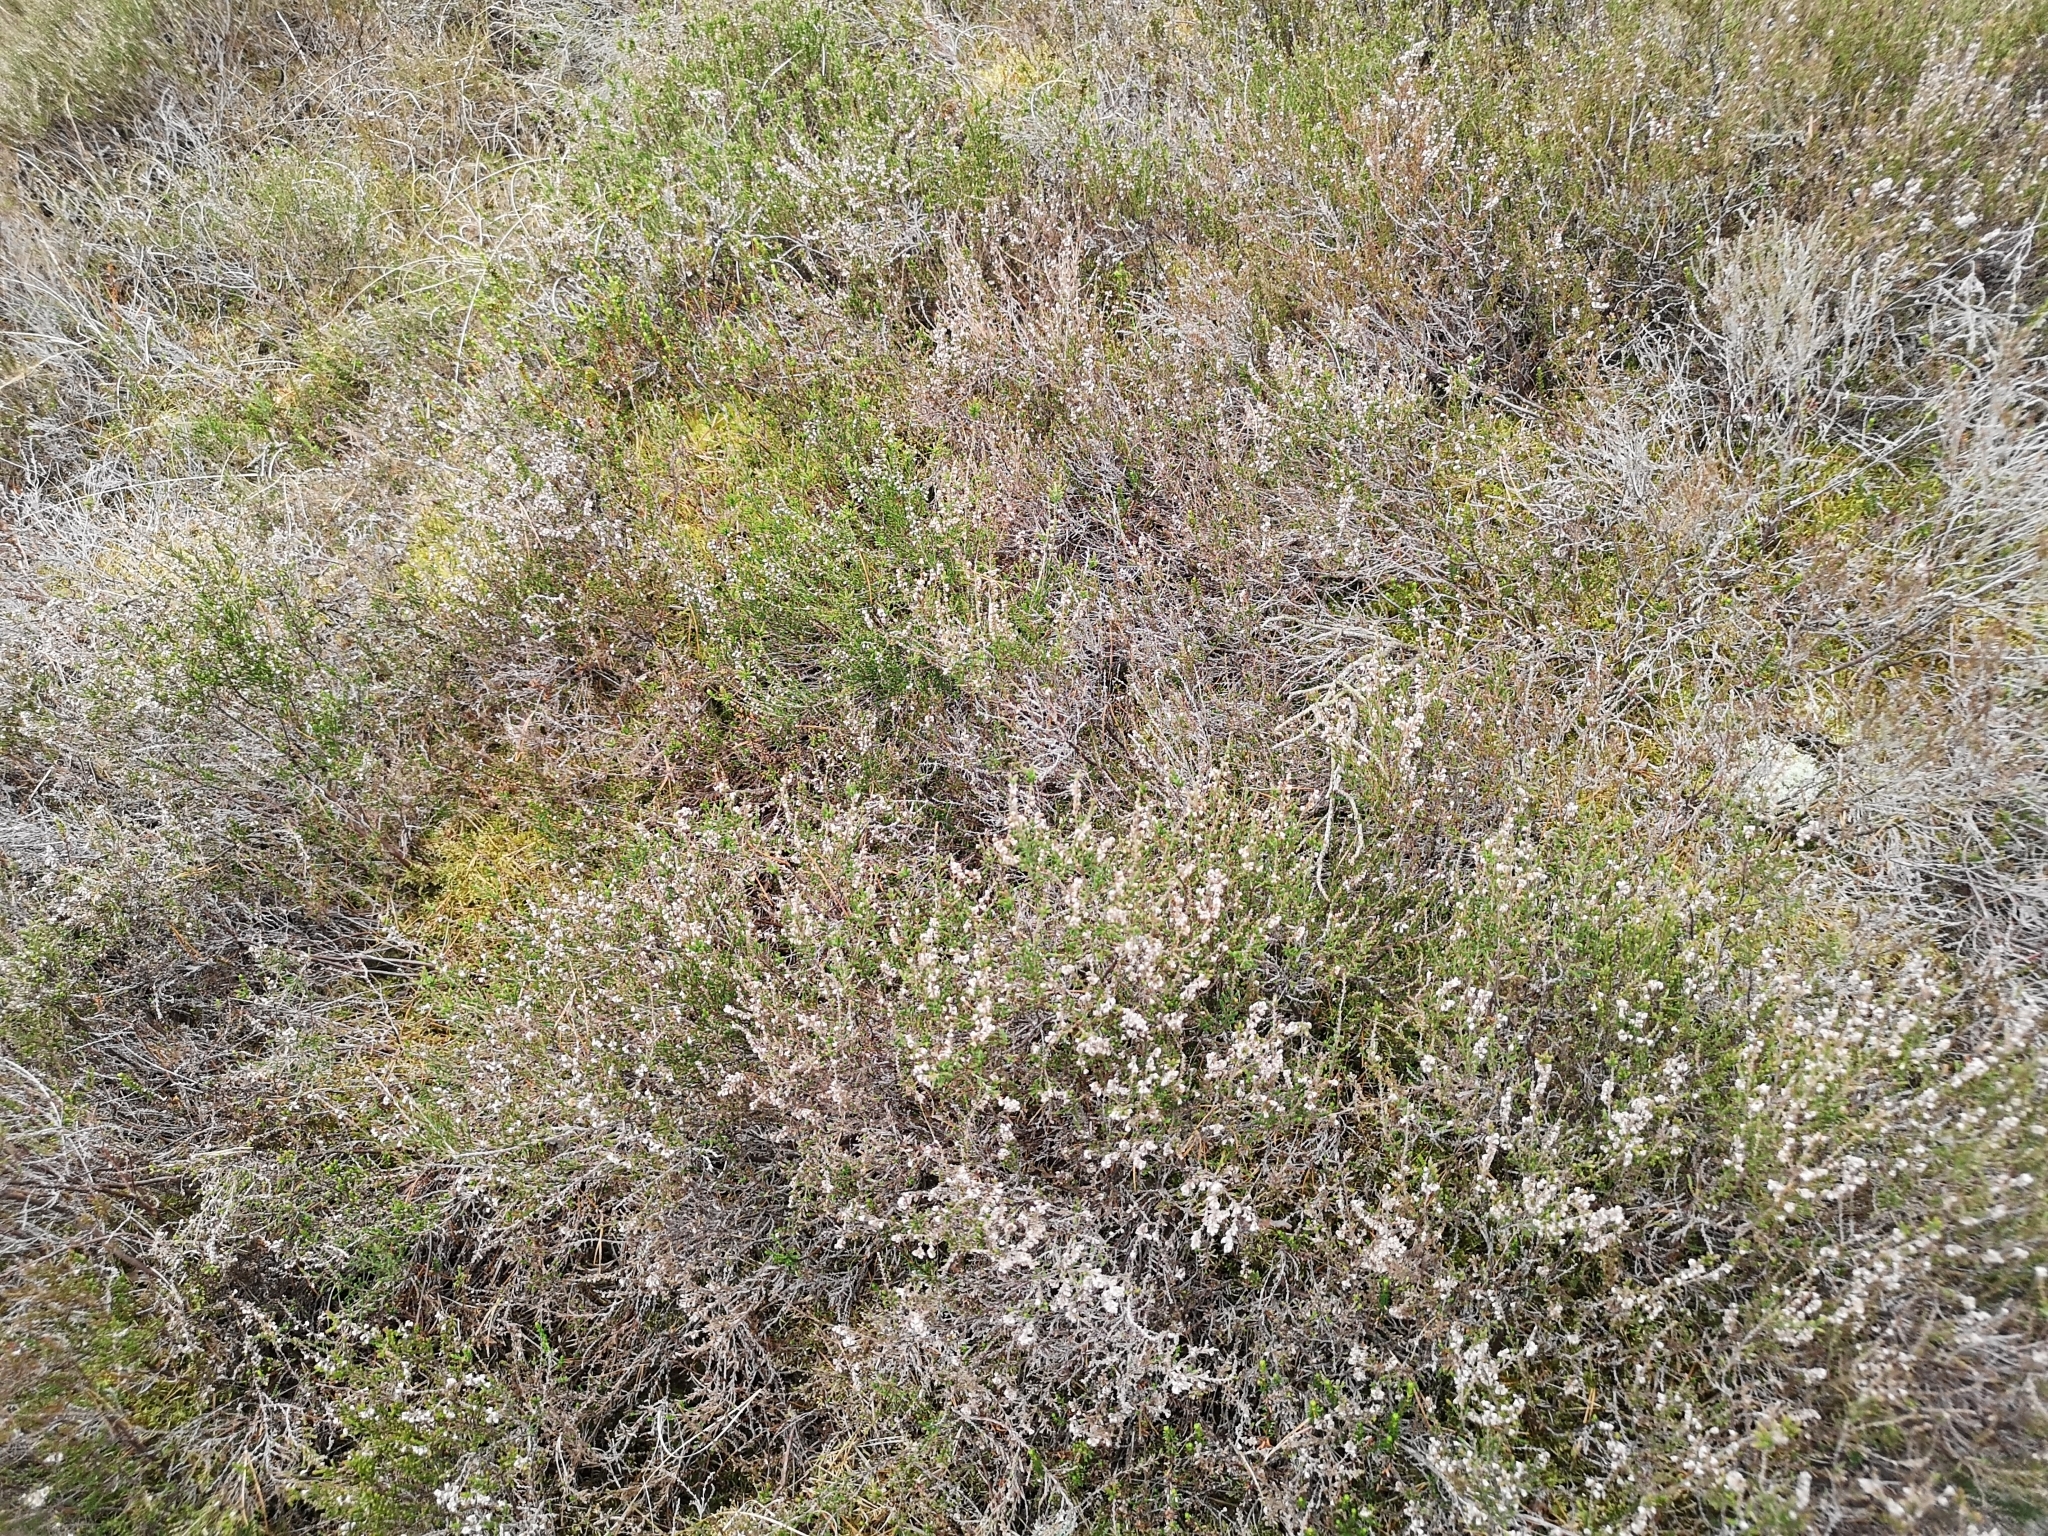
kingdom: Plantae
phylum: Tracheophyta
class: Magnoliopsida
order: Ericales
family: Ericaceae
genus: Calluna
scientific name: Calluna vulgaris
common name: Heather
